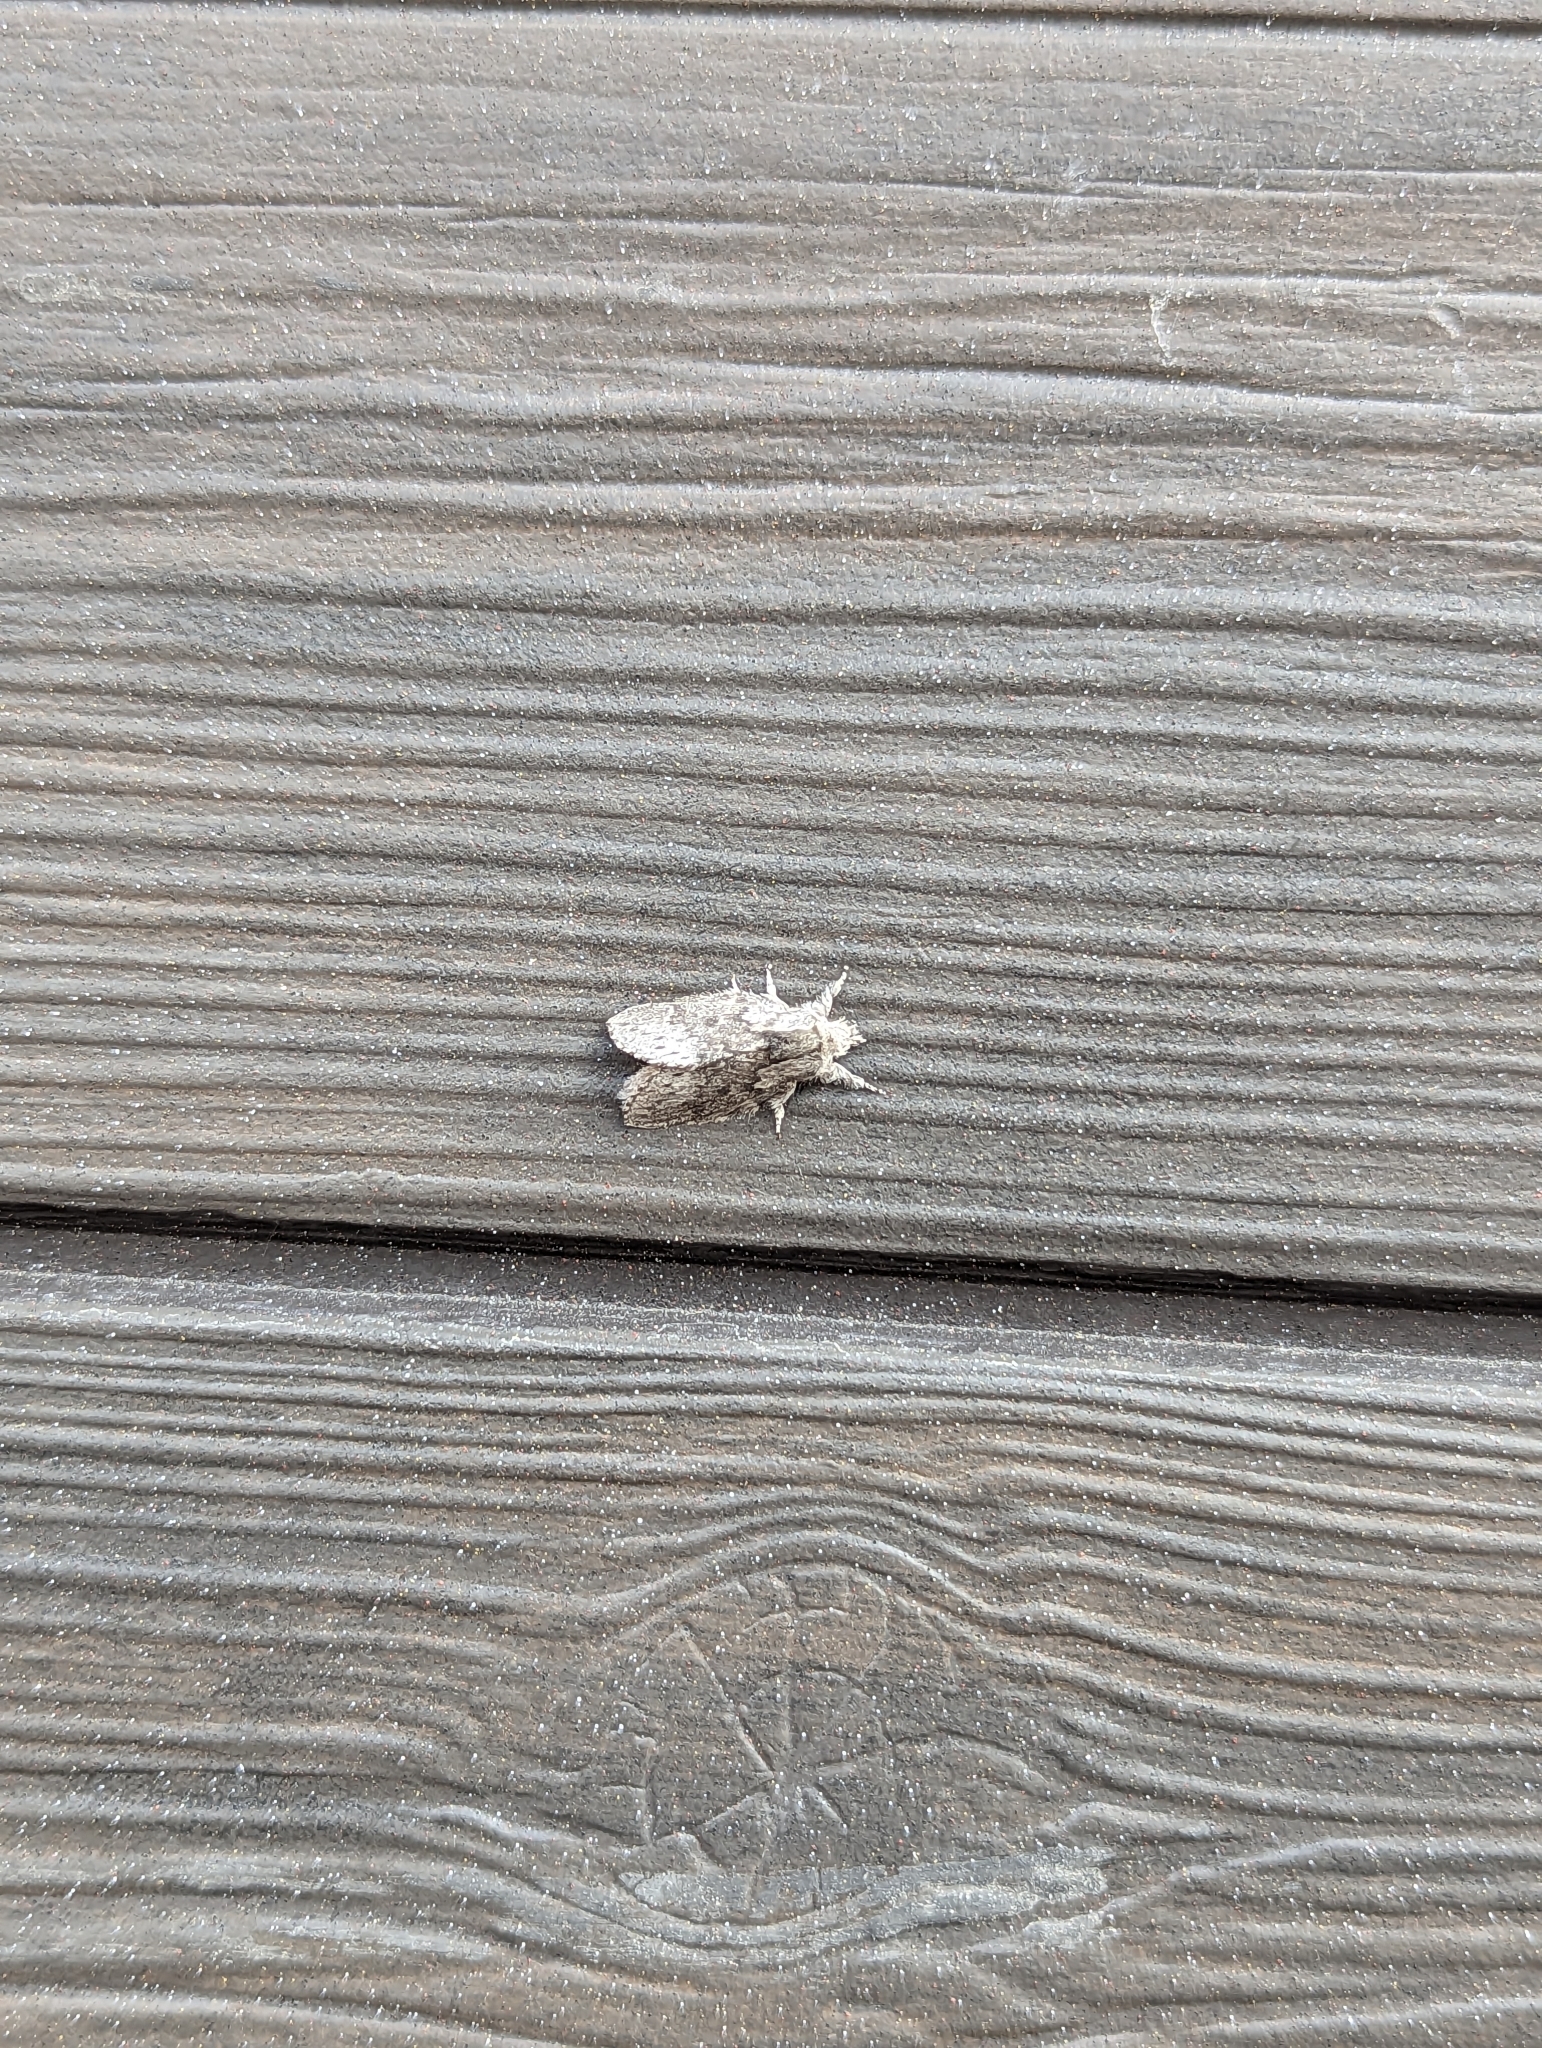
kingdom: Animalia
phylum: Arthropoda
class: Insecta
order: Lepidoptera
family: Lasiocampidae
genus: Heteropacha
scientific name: Heteropacha rileyana
